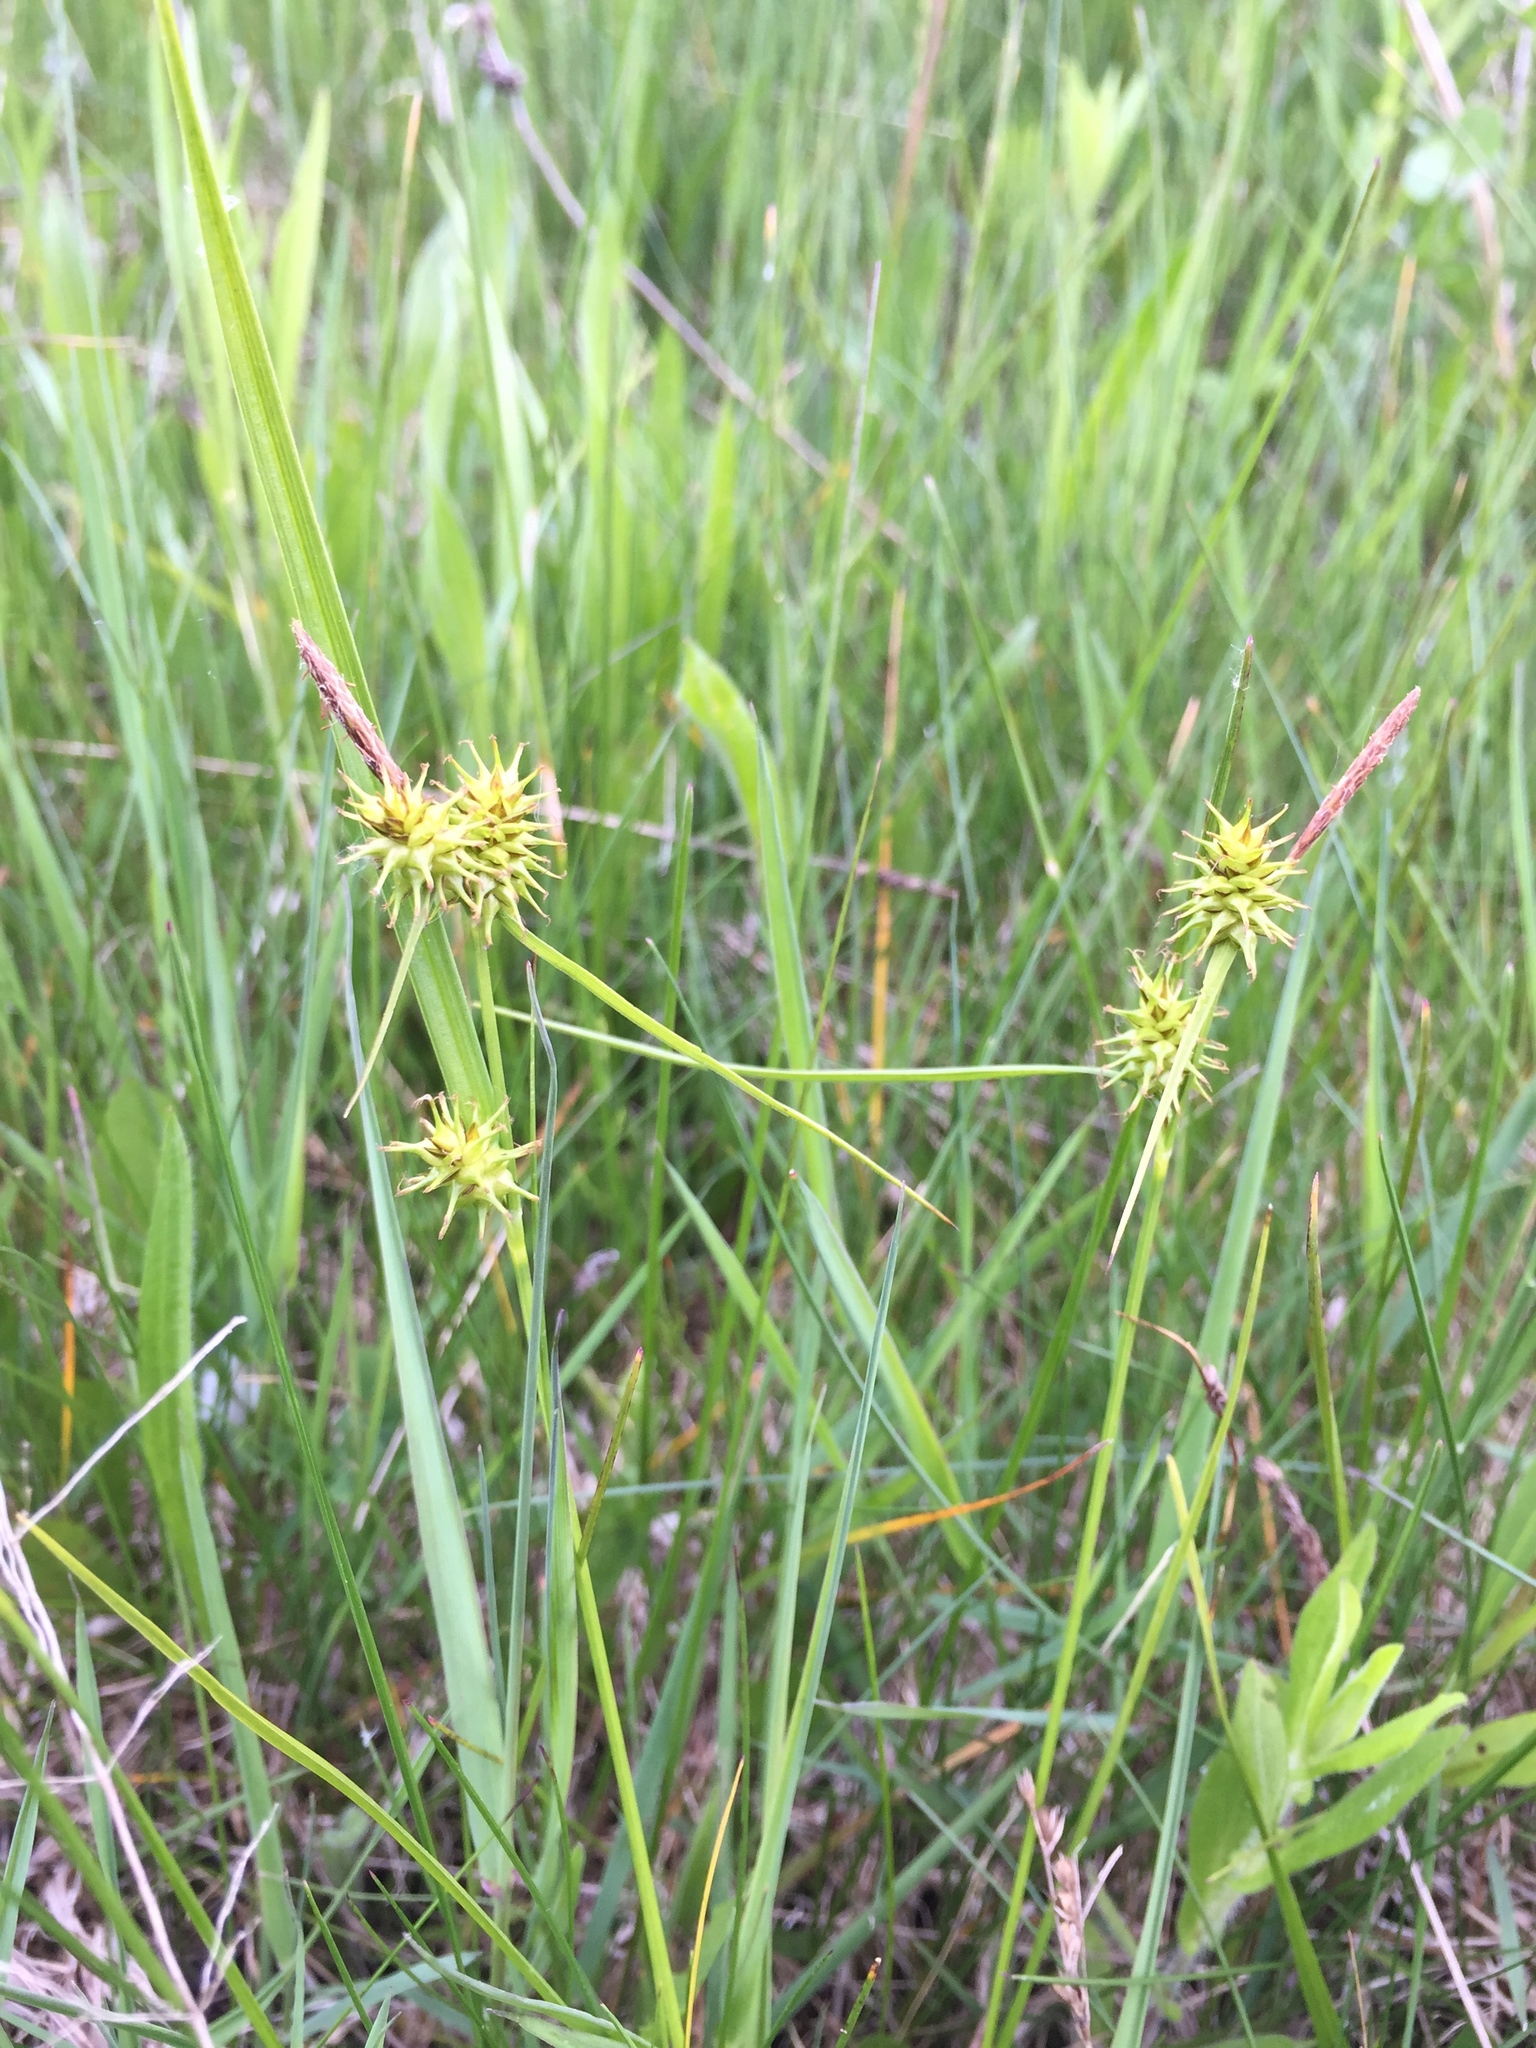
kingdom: Plantae
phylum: Tracheophyta
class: Liliopsida
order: Poales
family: Cyperaceae
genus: Carex
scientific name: Carex flava
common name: Large yellow-sedge
